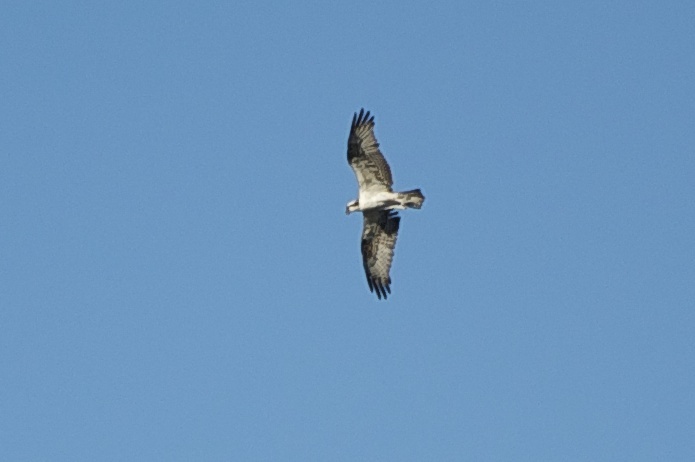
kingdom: Animalia
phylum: Chordata
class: Aves
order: Accipitriformes
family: Pandionidae
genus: Pandion
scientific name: Pandion haliaetus
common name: Osprey
